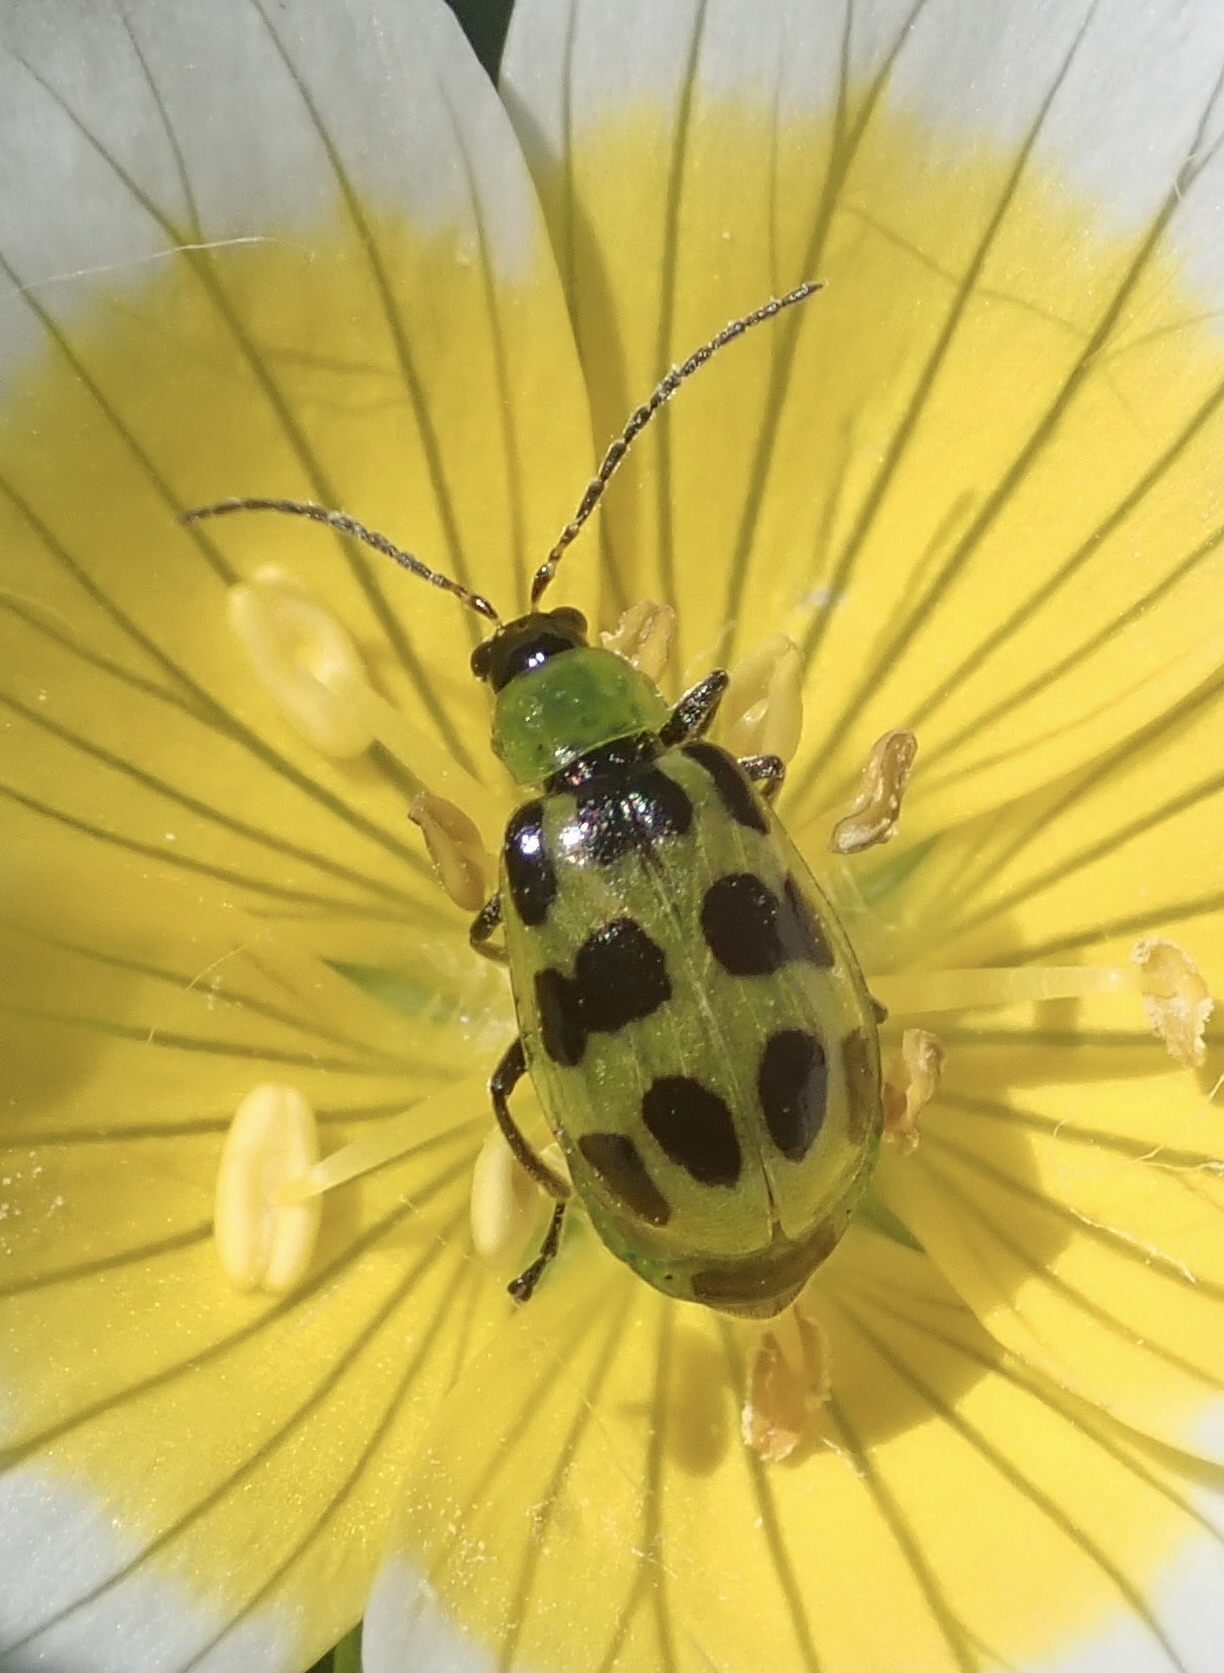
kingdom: Animalia
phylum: Arthropoda
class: Insecta
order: Coleoptera
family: Chrysomelidae
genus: Diabrotica
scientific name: Diabrotica undecimpunctata
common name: Spotted cucumber beetle
